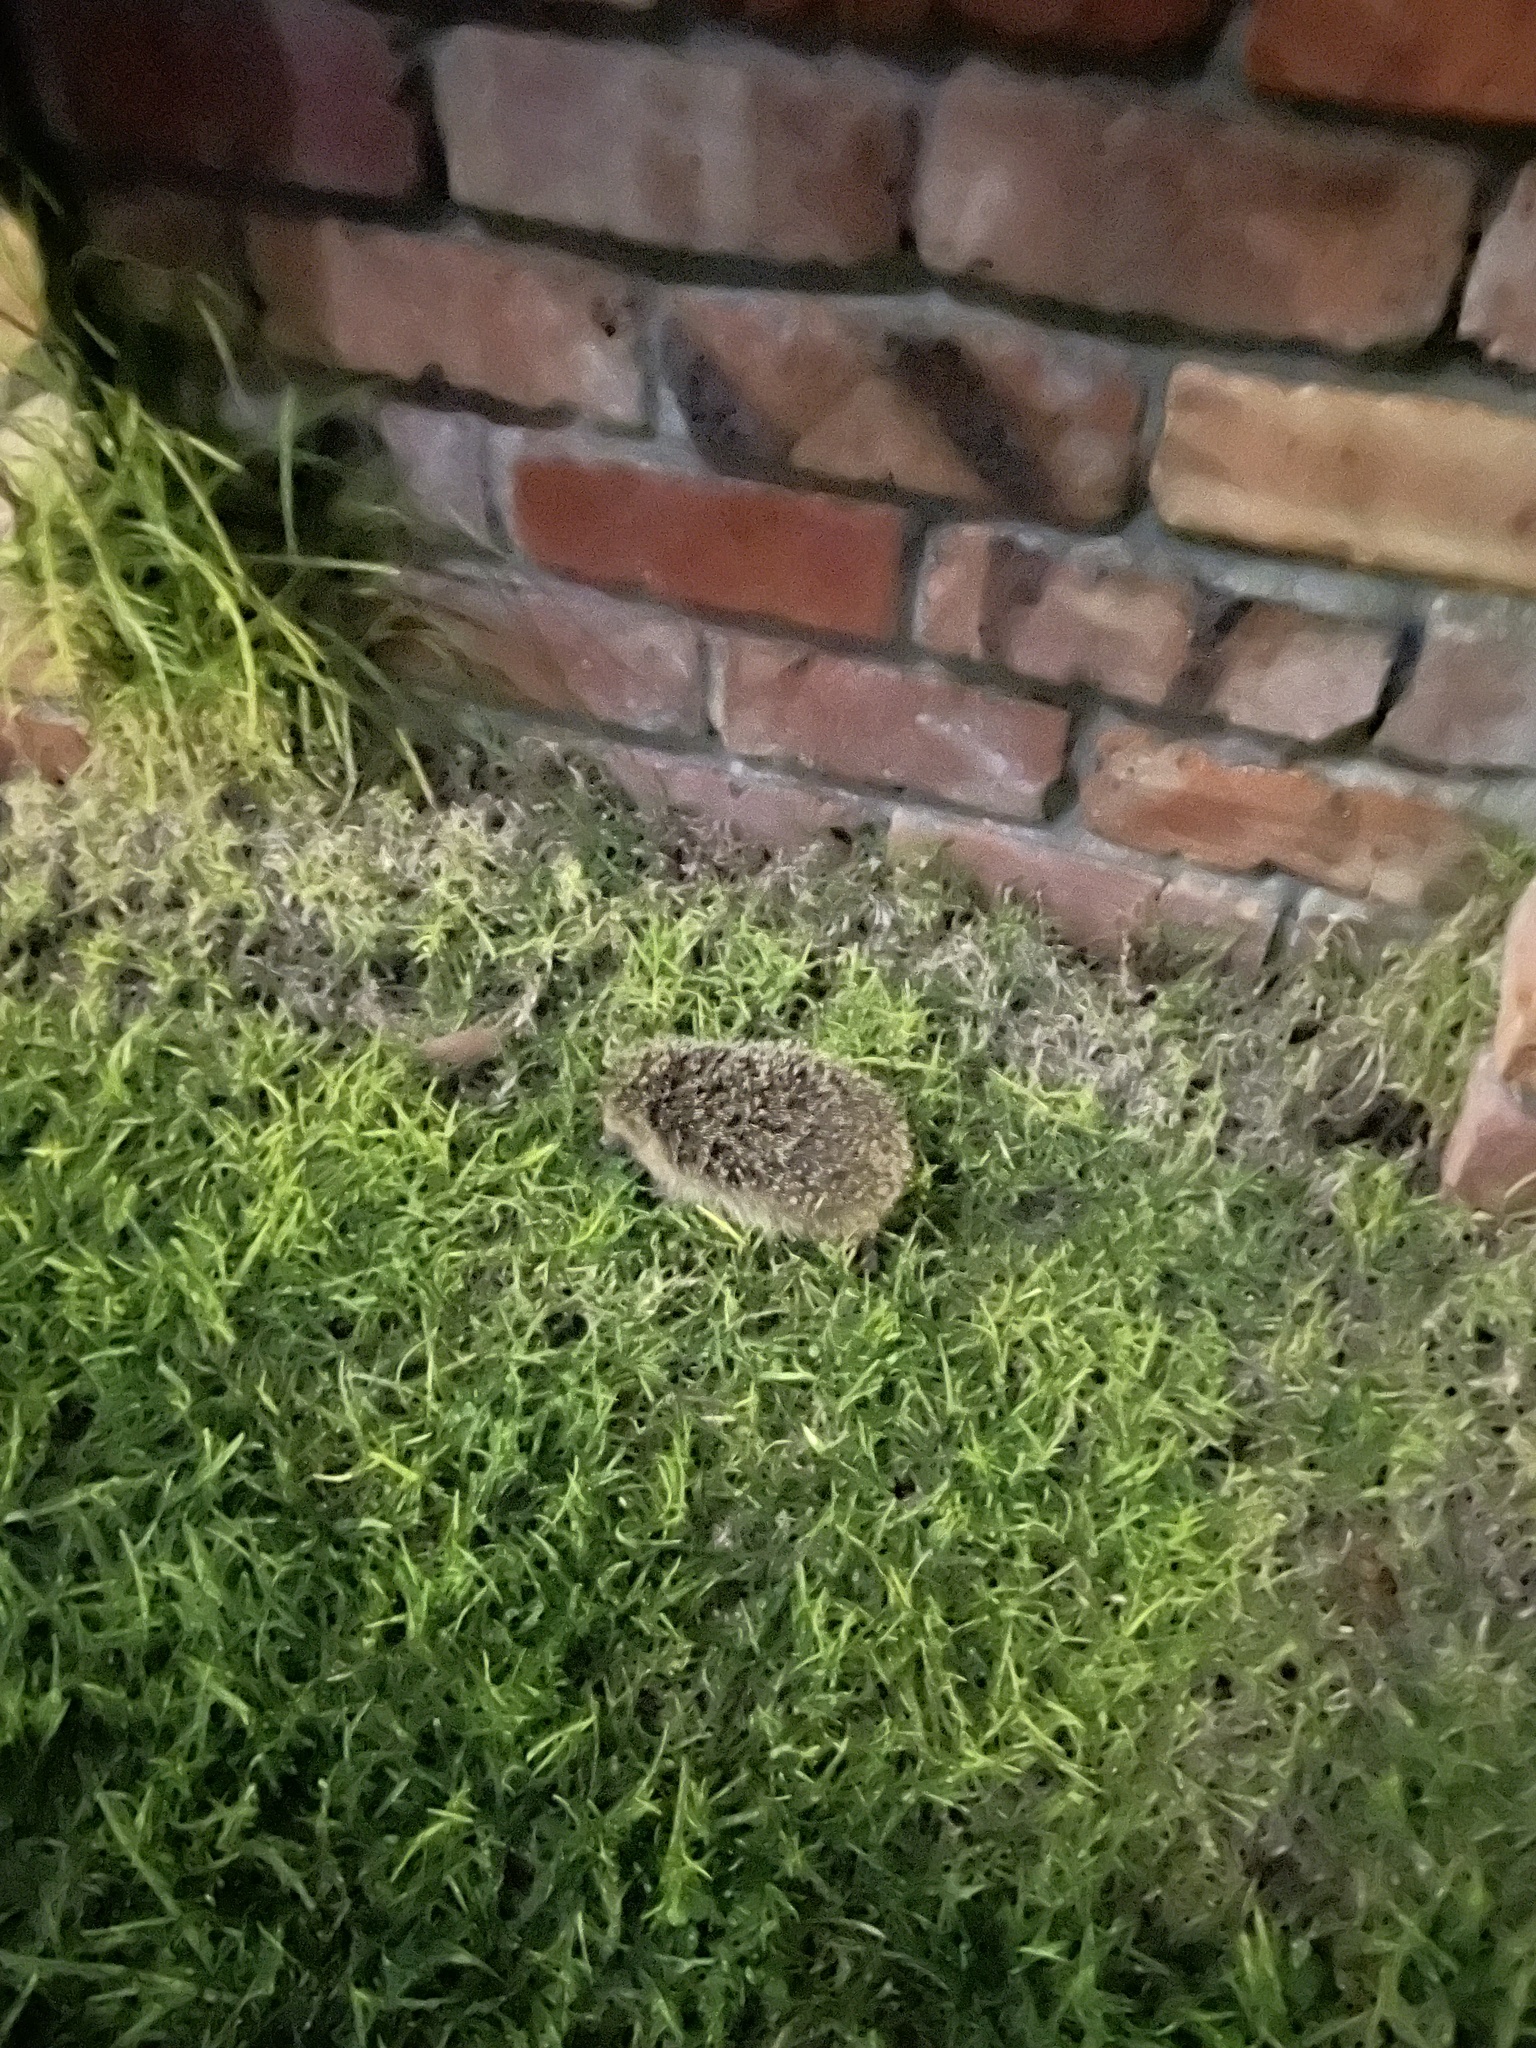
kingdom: Animalia
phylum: Chordata
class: Mammalia
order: Erinaceomorpha
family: Erinaceidae
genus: Erinaceus
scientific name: Erinaceus europaeus
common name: West european hedgehog
